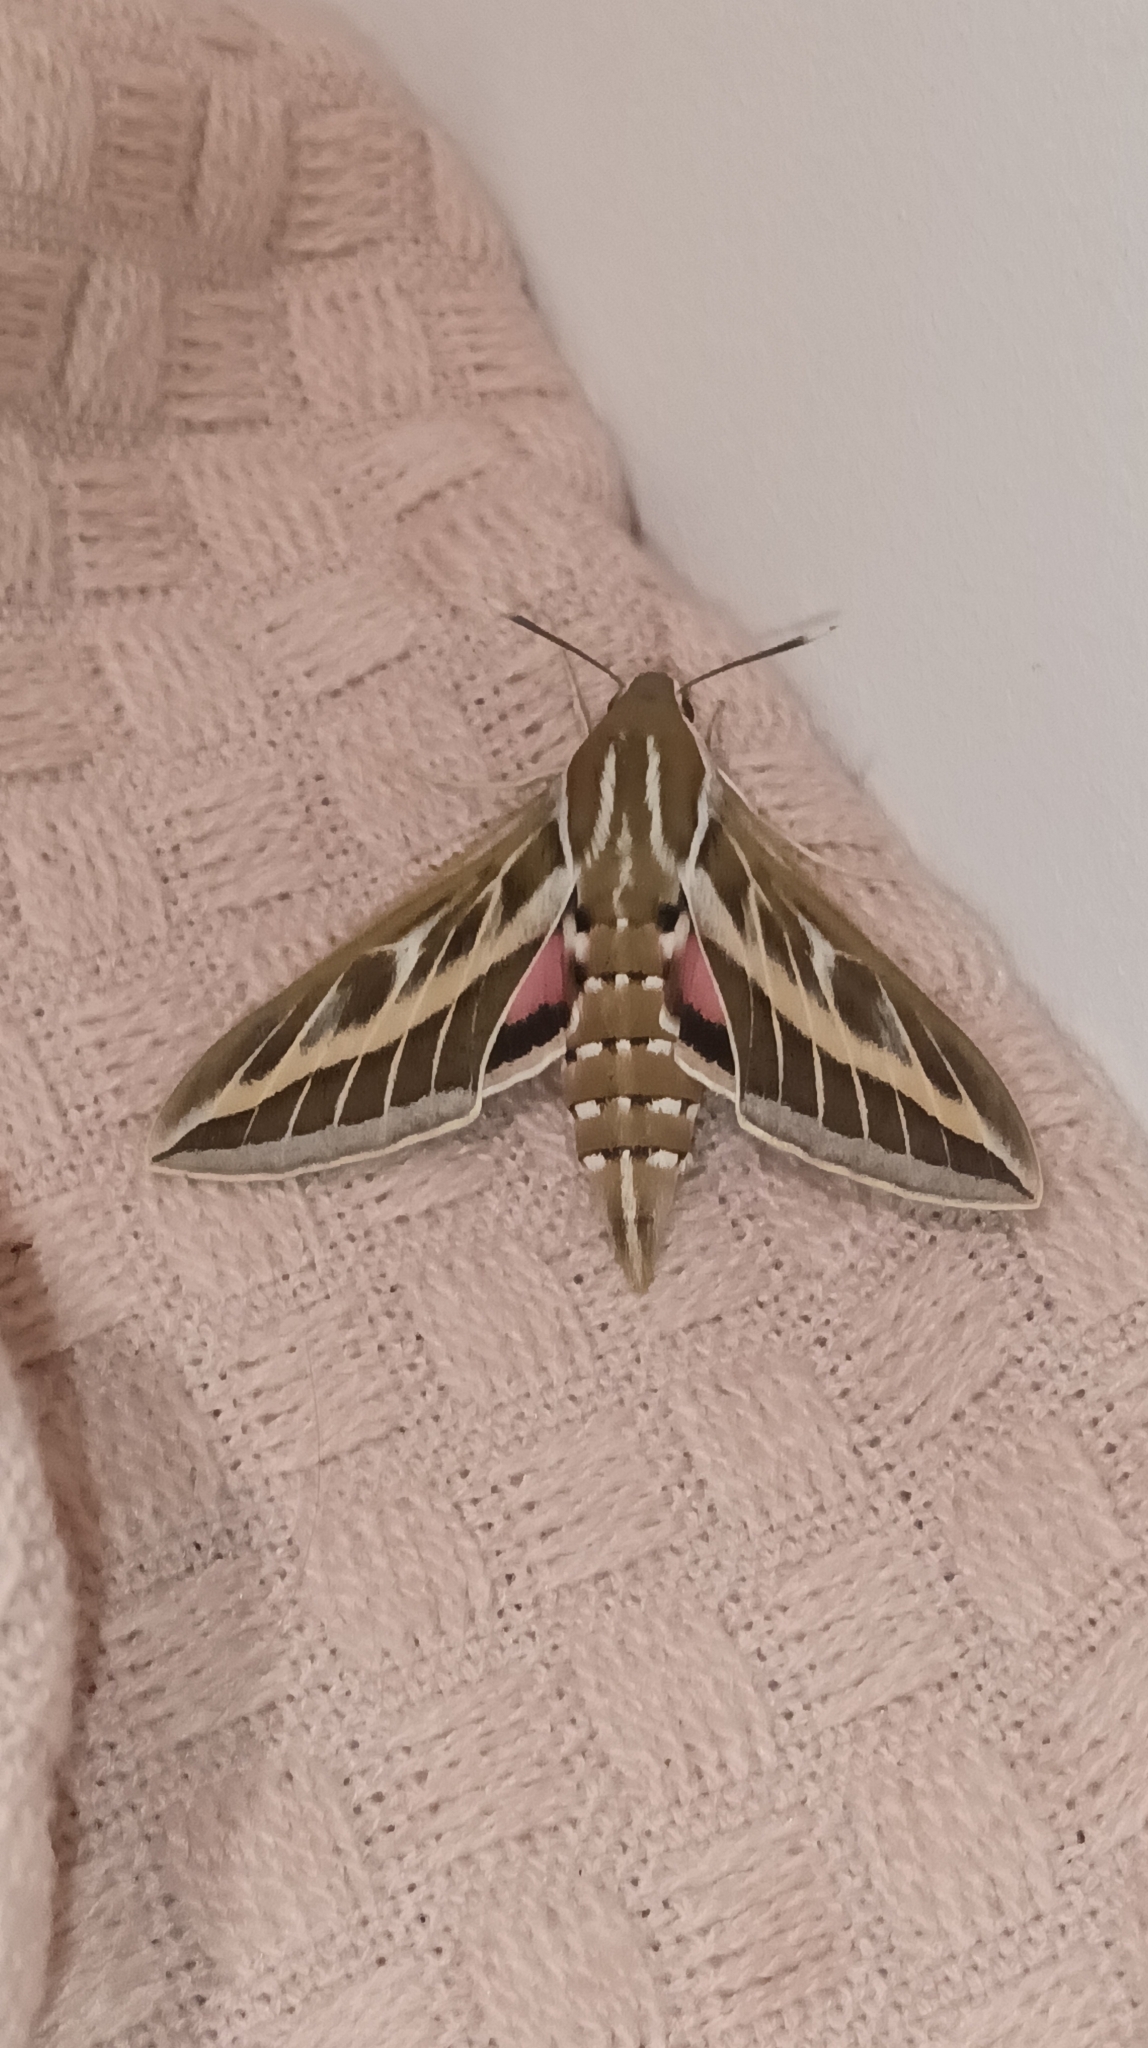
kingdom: Animalia
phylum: Arthropoda
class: Insecta
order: Lepidoptera
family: Sphingidae
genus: Hyles
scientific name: Hyles livornica
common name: Striped hawk-moth
